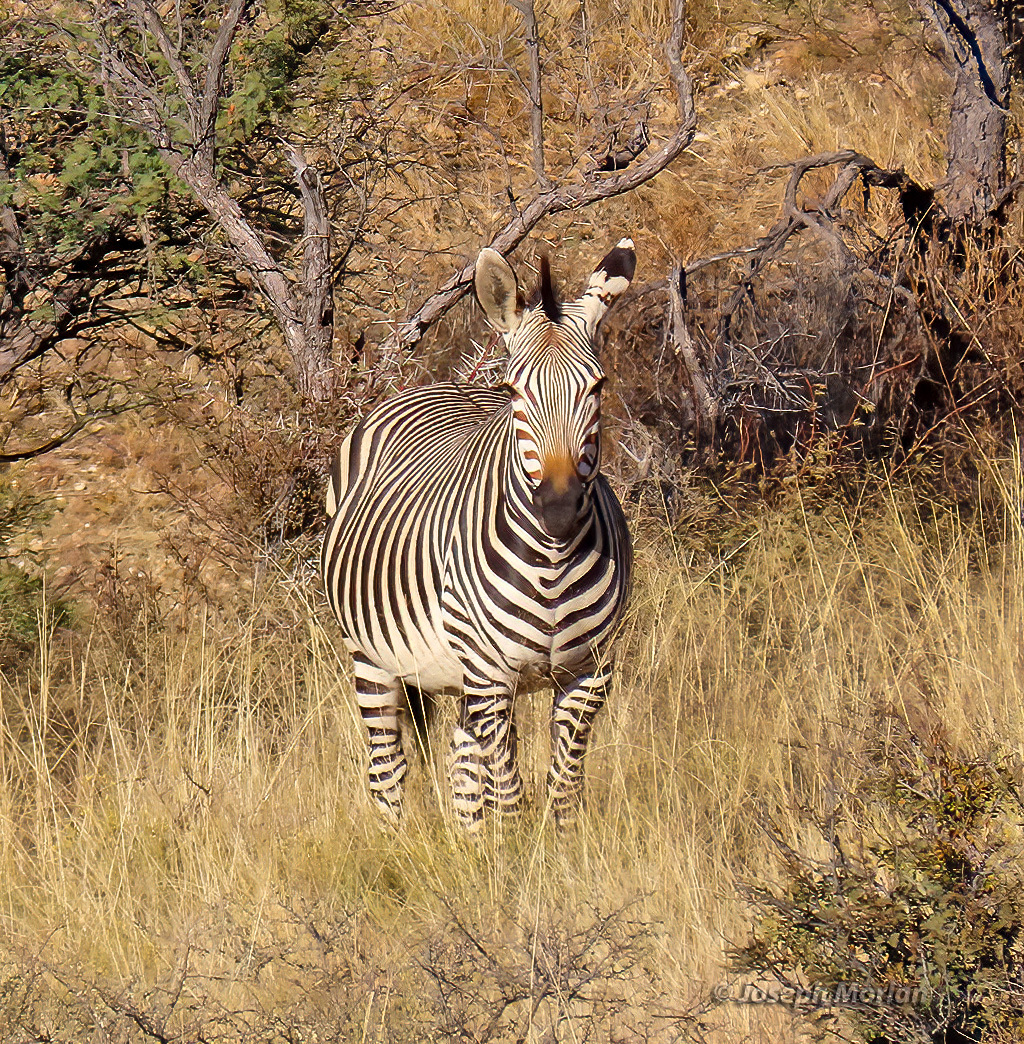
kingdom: Animalia
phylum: Chordata
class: Mammalia
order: Perissodactyla
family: Equidae
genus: Equus
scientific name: Equus hartmannae
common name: Hartmann's mountain zebra
